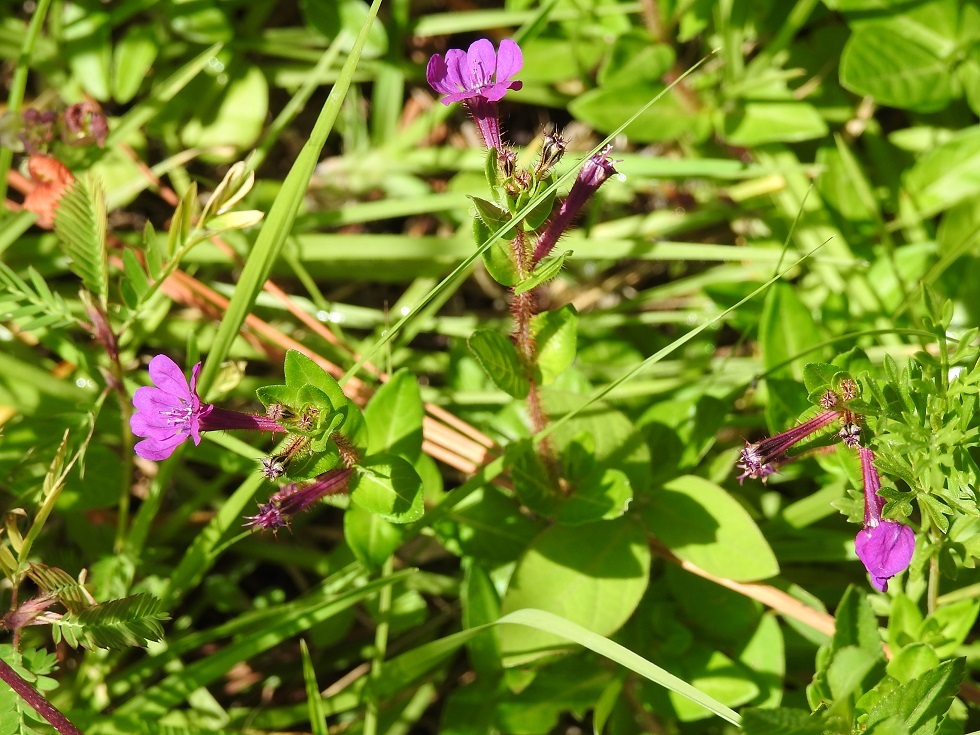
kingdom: Plantae
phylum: Tracheophyta
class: Magnoliopsida
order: Myrtales
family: Lythraceae
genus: Cuphea
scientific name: Cuphea aequipetala
